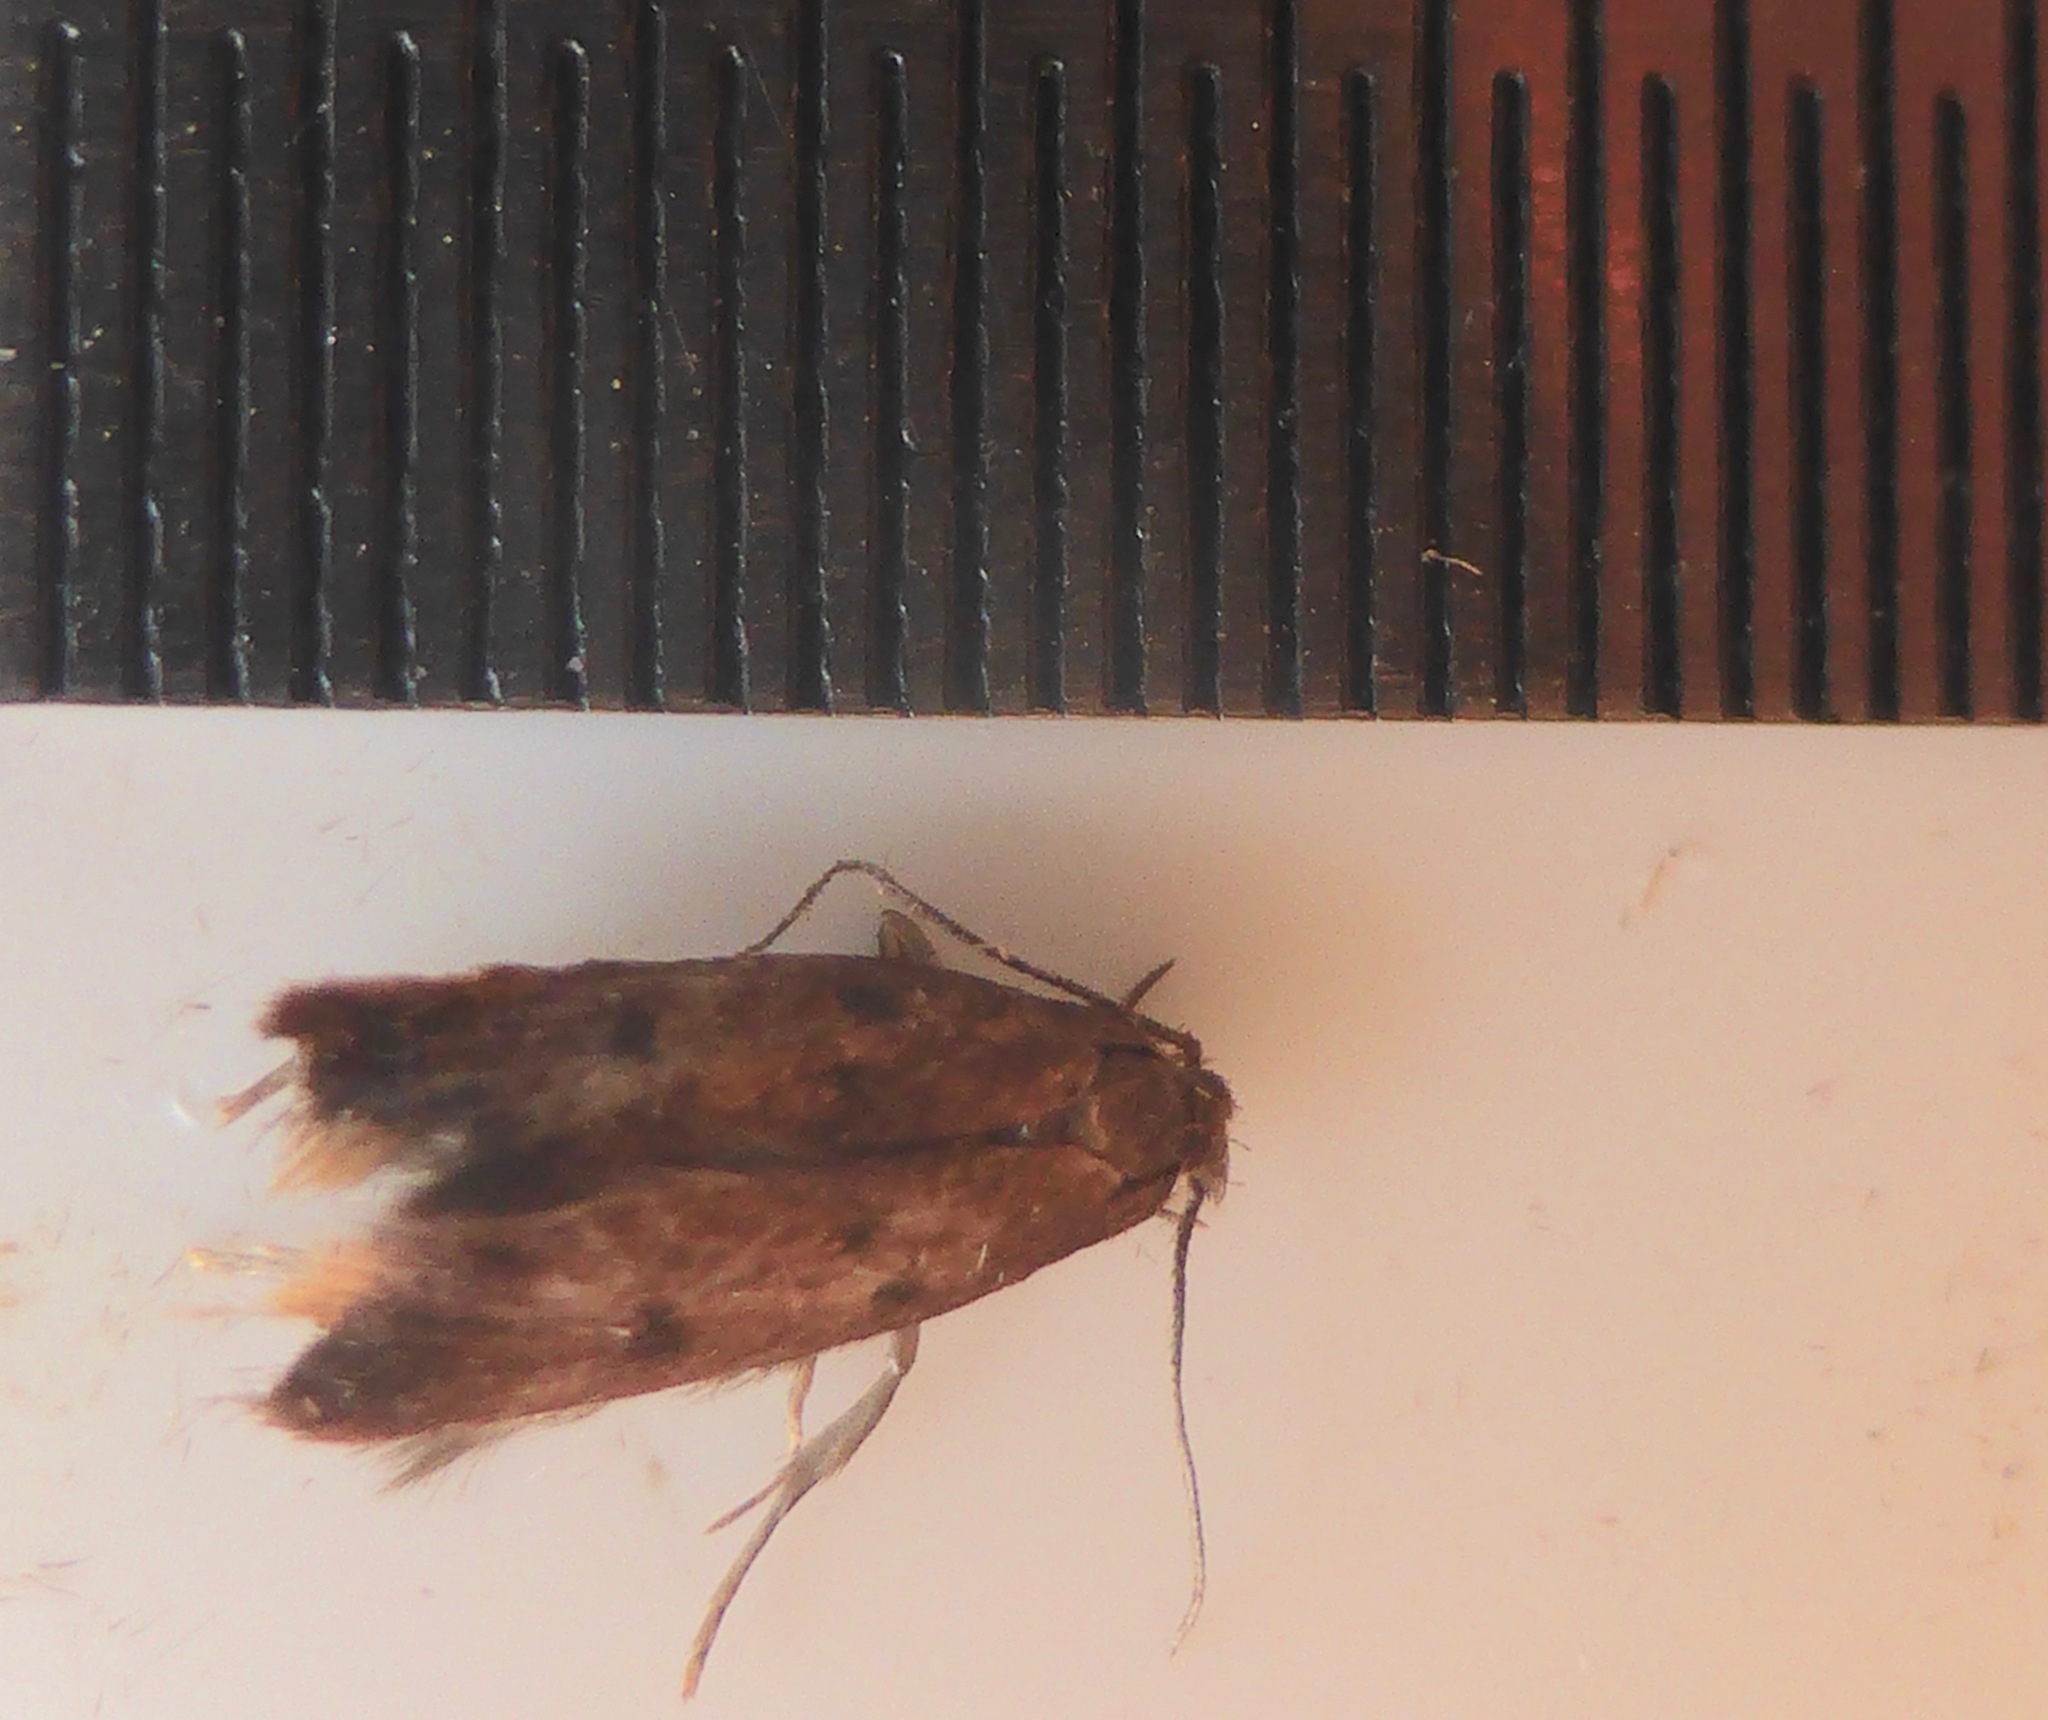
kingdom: Animalia
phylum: Arthropoda
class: Insecta
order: Lepidoptera
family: Oecophoridae
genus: Tachystola
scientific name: Tachystola acroxantha
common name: Ruddy streak
